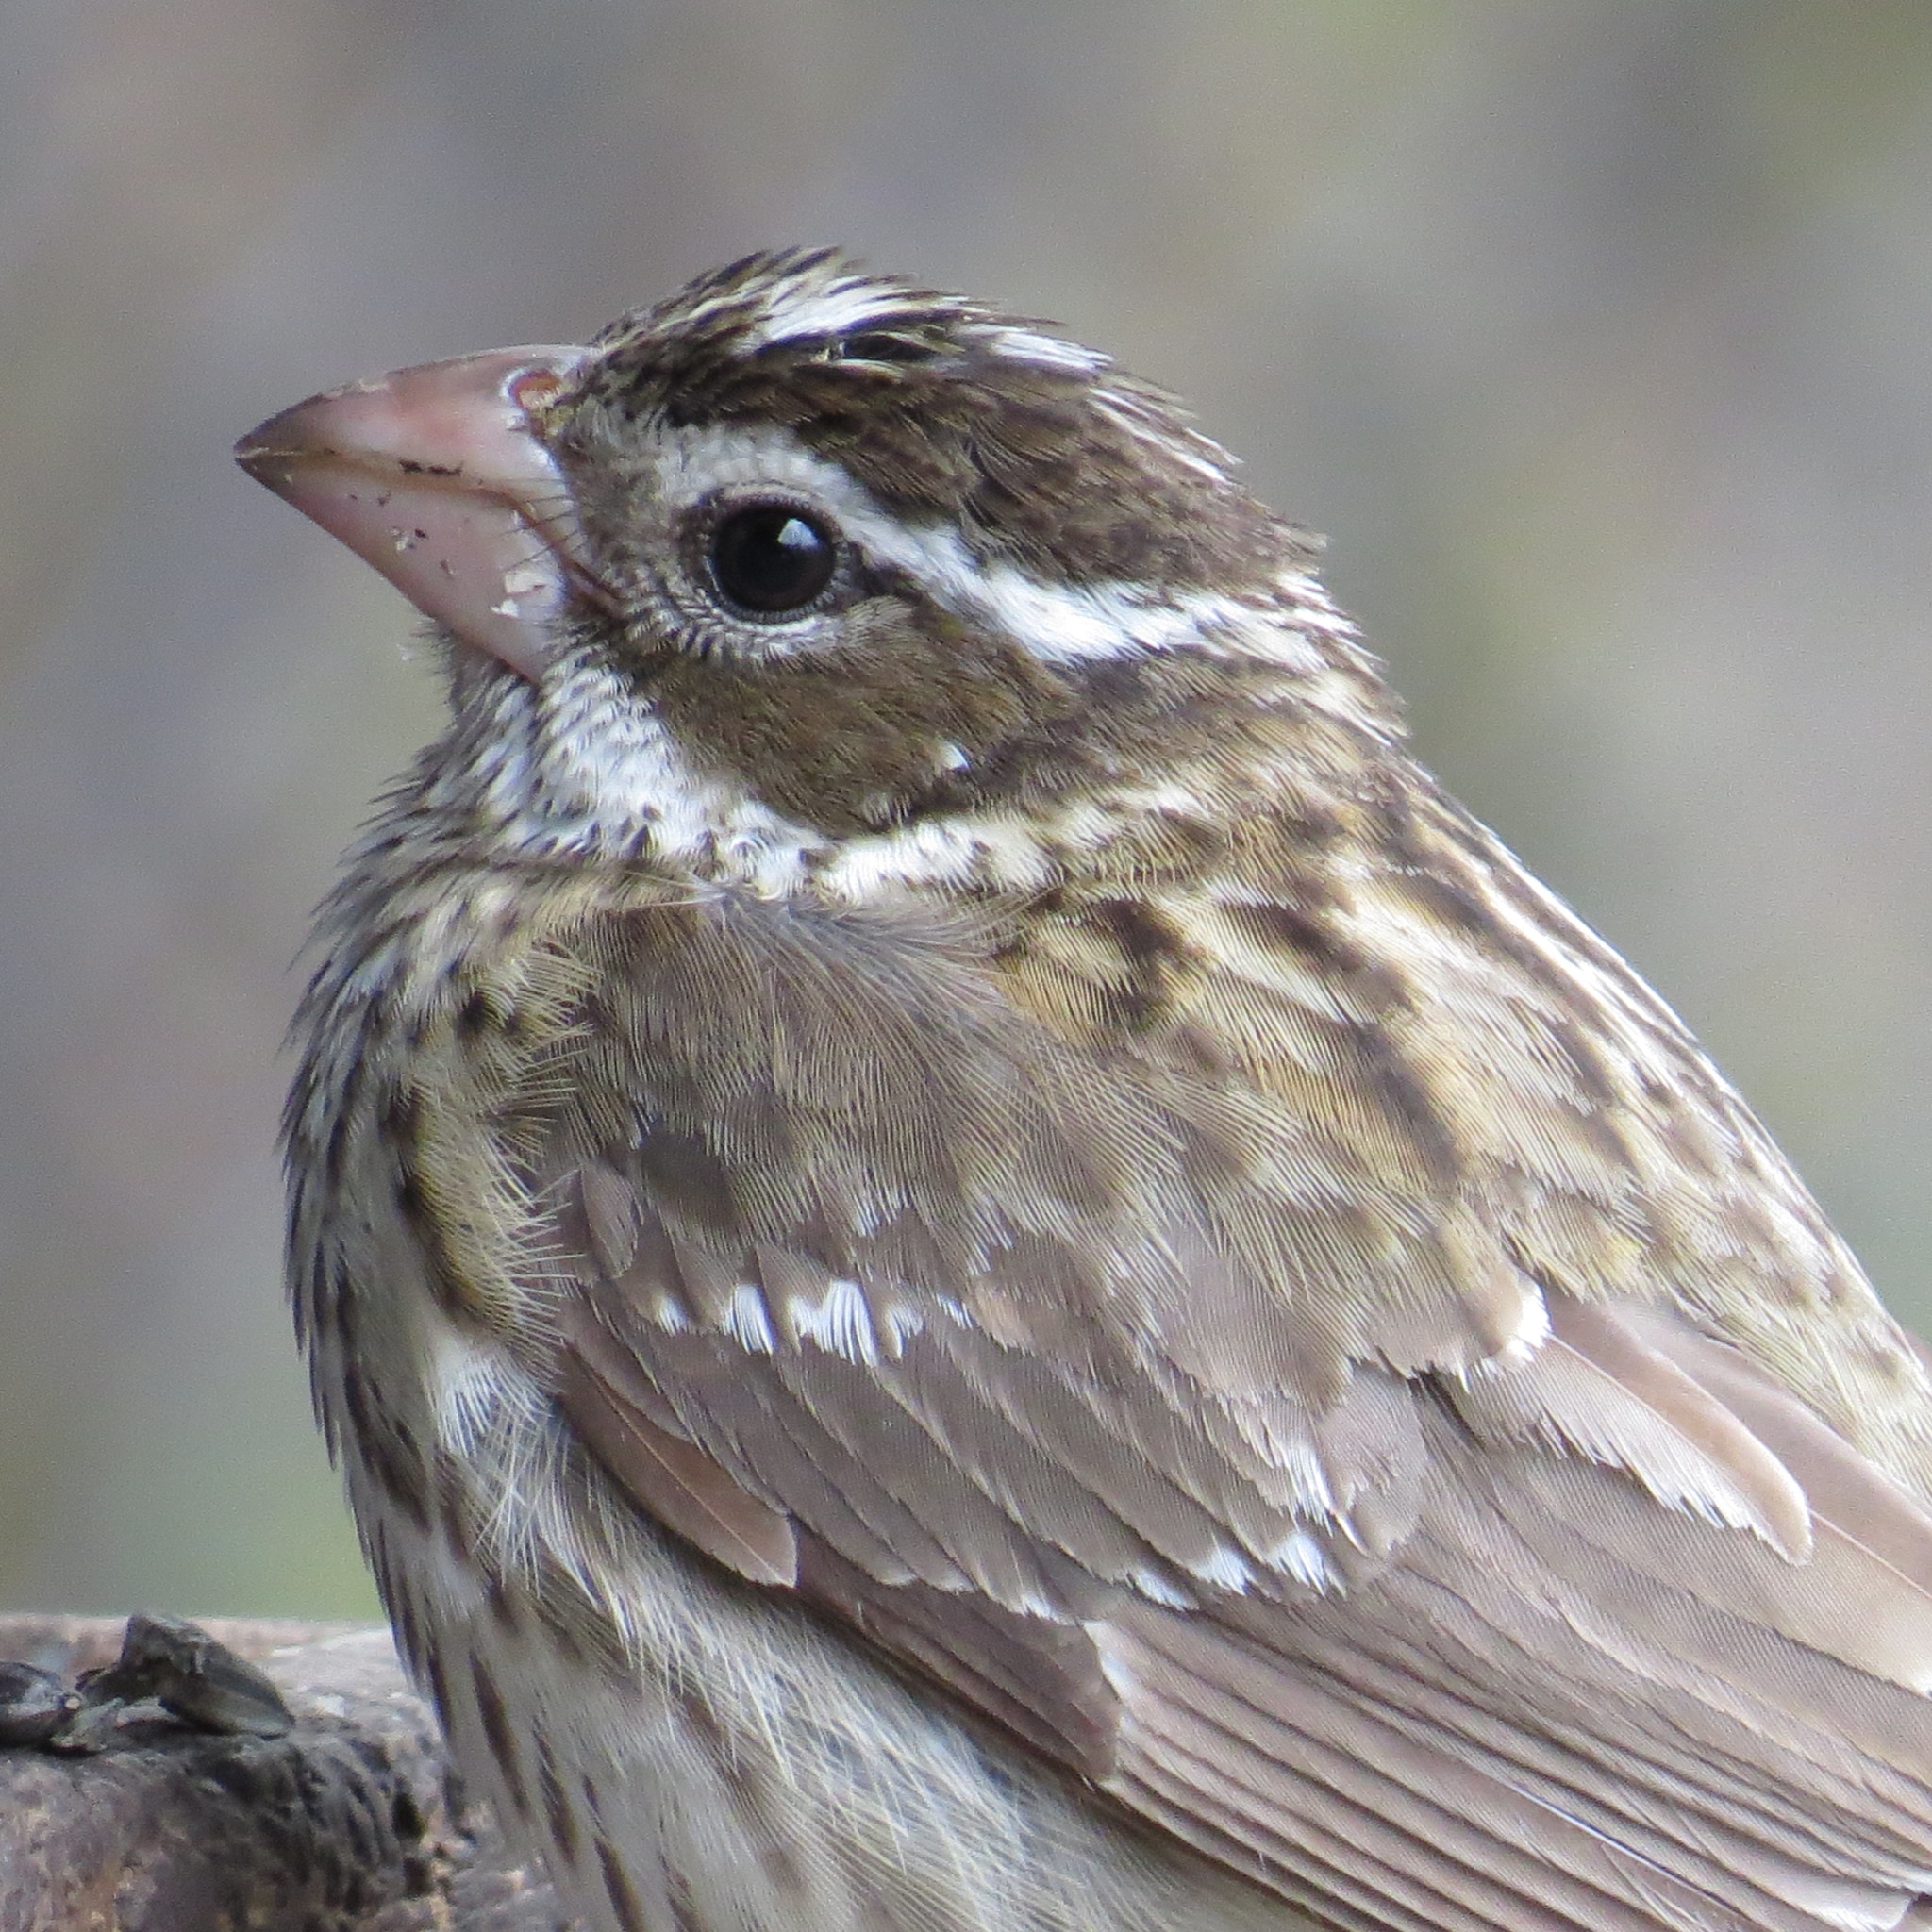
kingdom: Animalia
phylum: Chordata
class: Aves
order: Passeriformes
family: Cardinalidae
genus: Pheucticus
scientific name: Pheucticus ludovicianus
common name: Rose-breasted grosbeak
